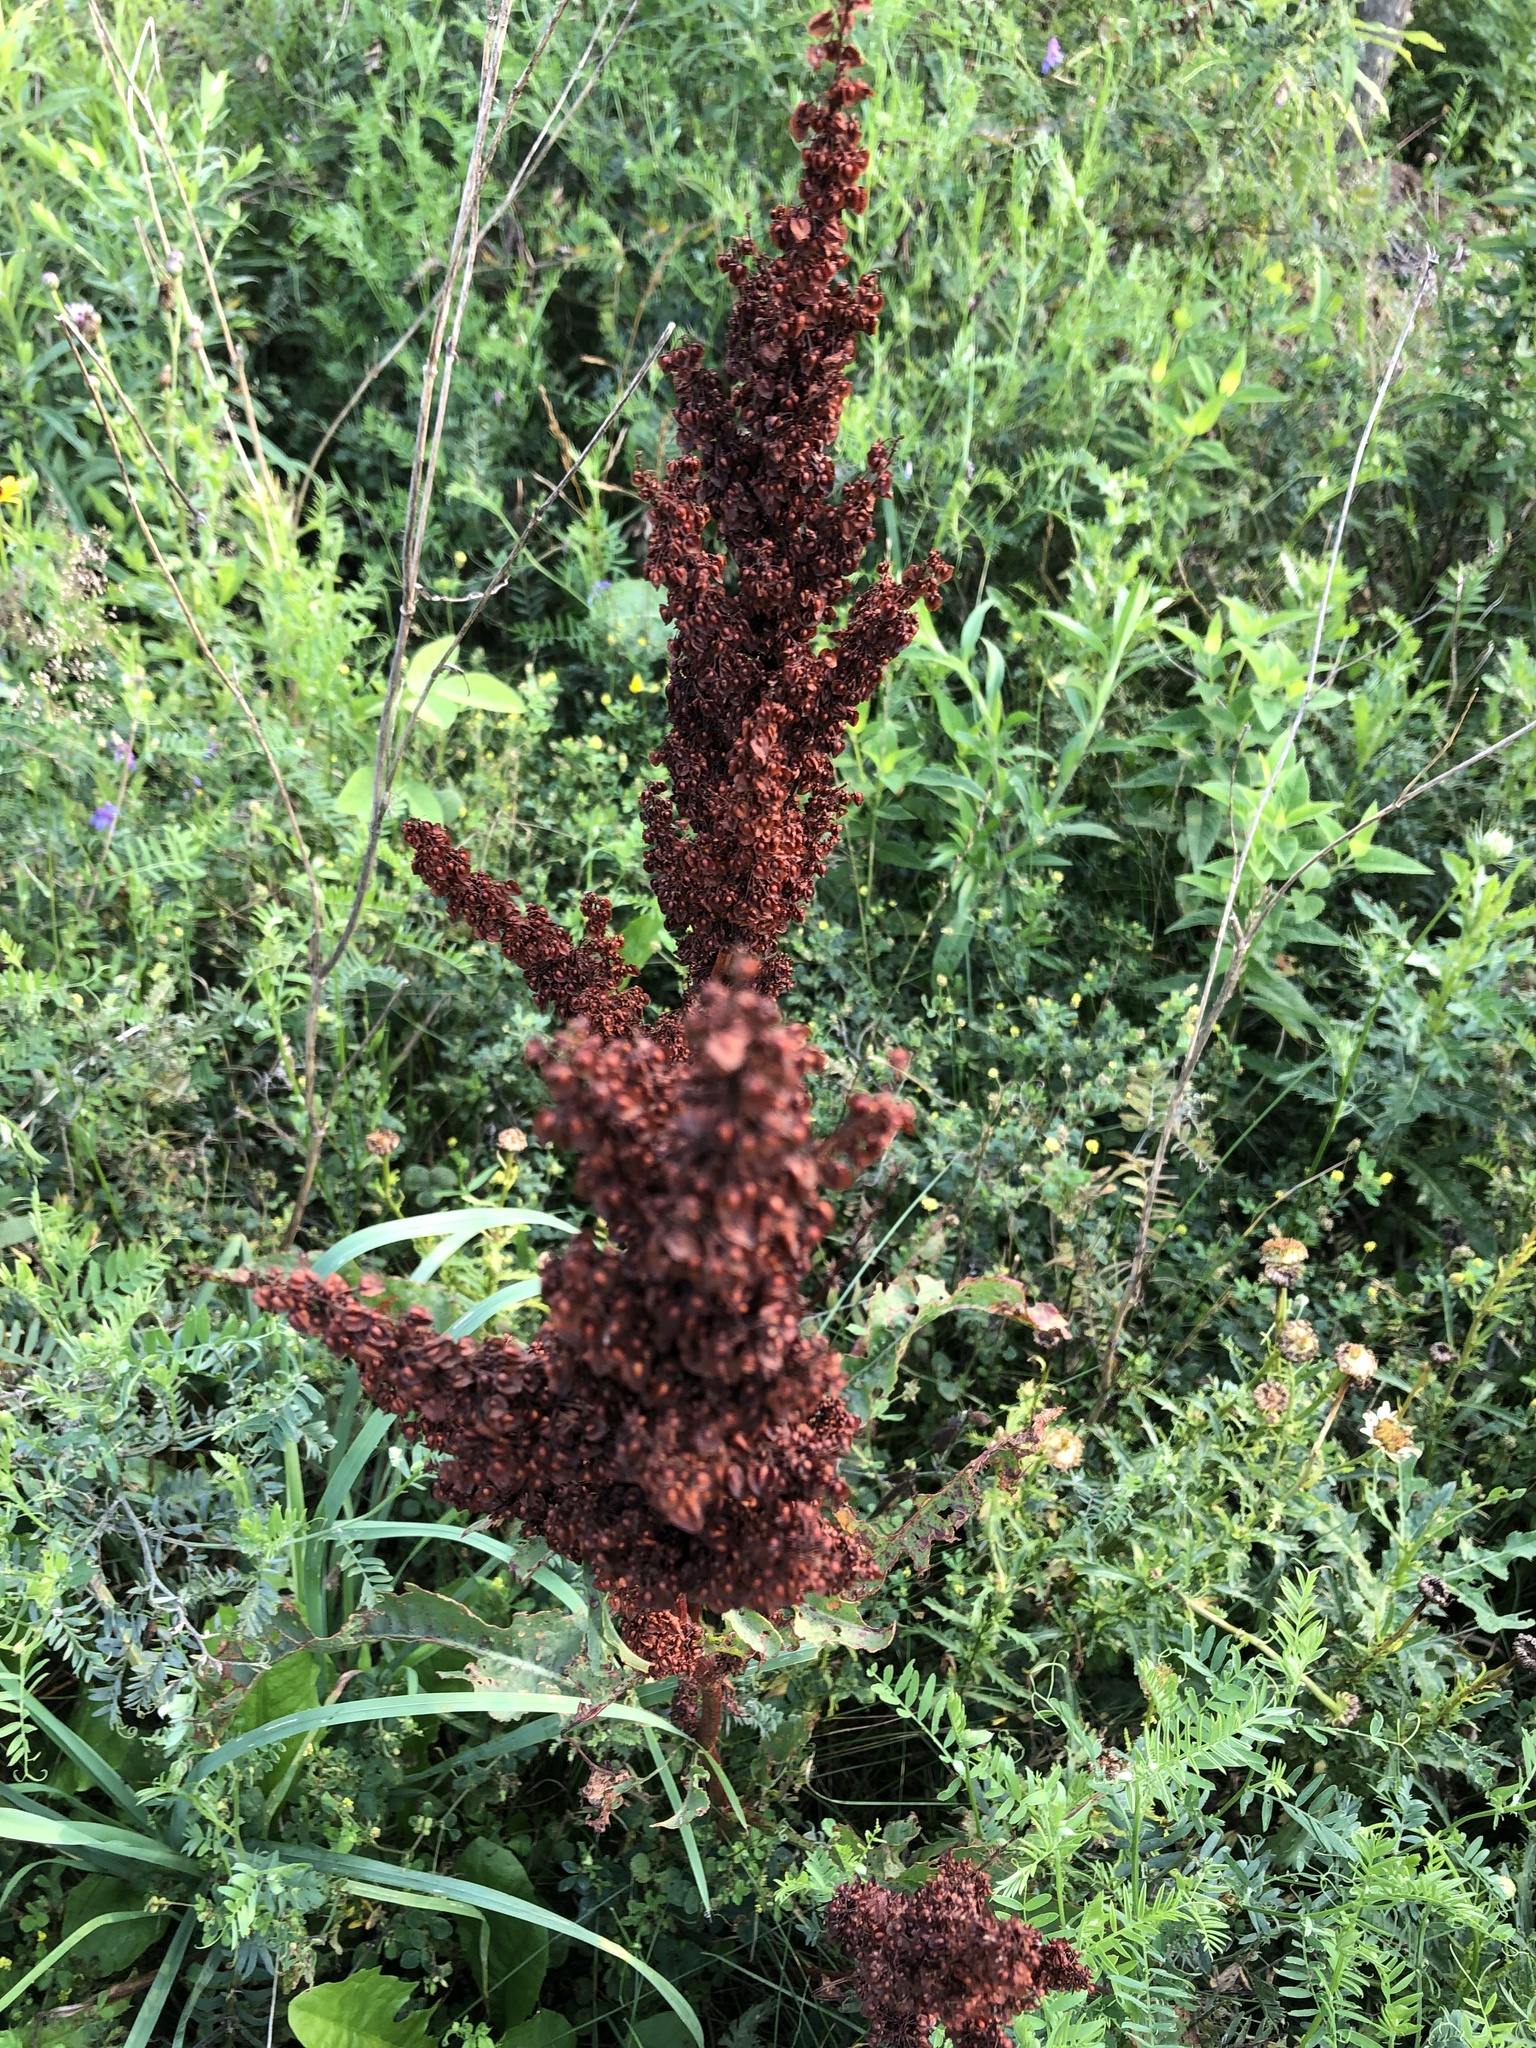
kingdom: Plantae
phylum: Tracheophyta
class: Magnoliopsida
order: Caryophyllales
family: Polygonaceae
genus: Rumex
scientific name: Rumex crispus
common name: Curled dock
